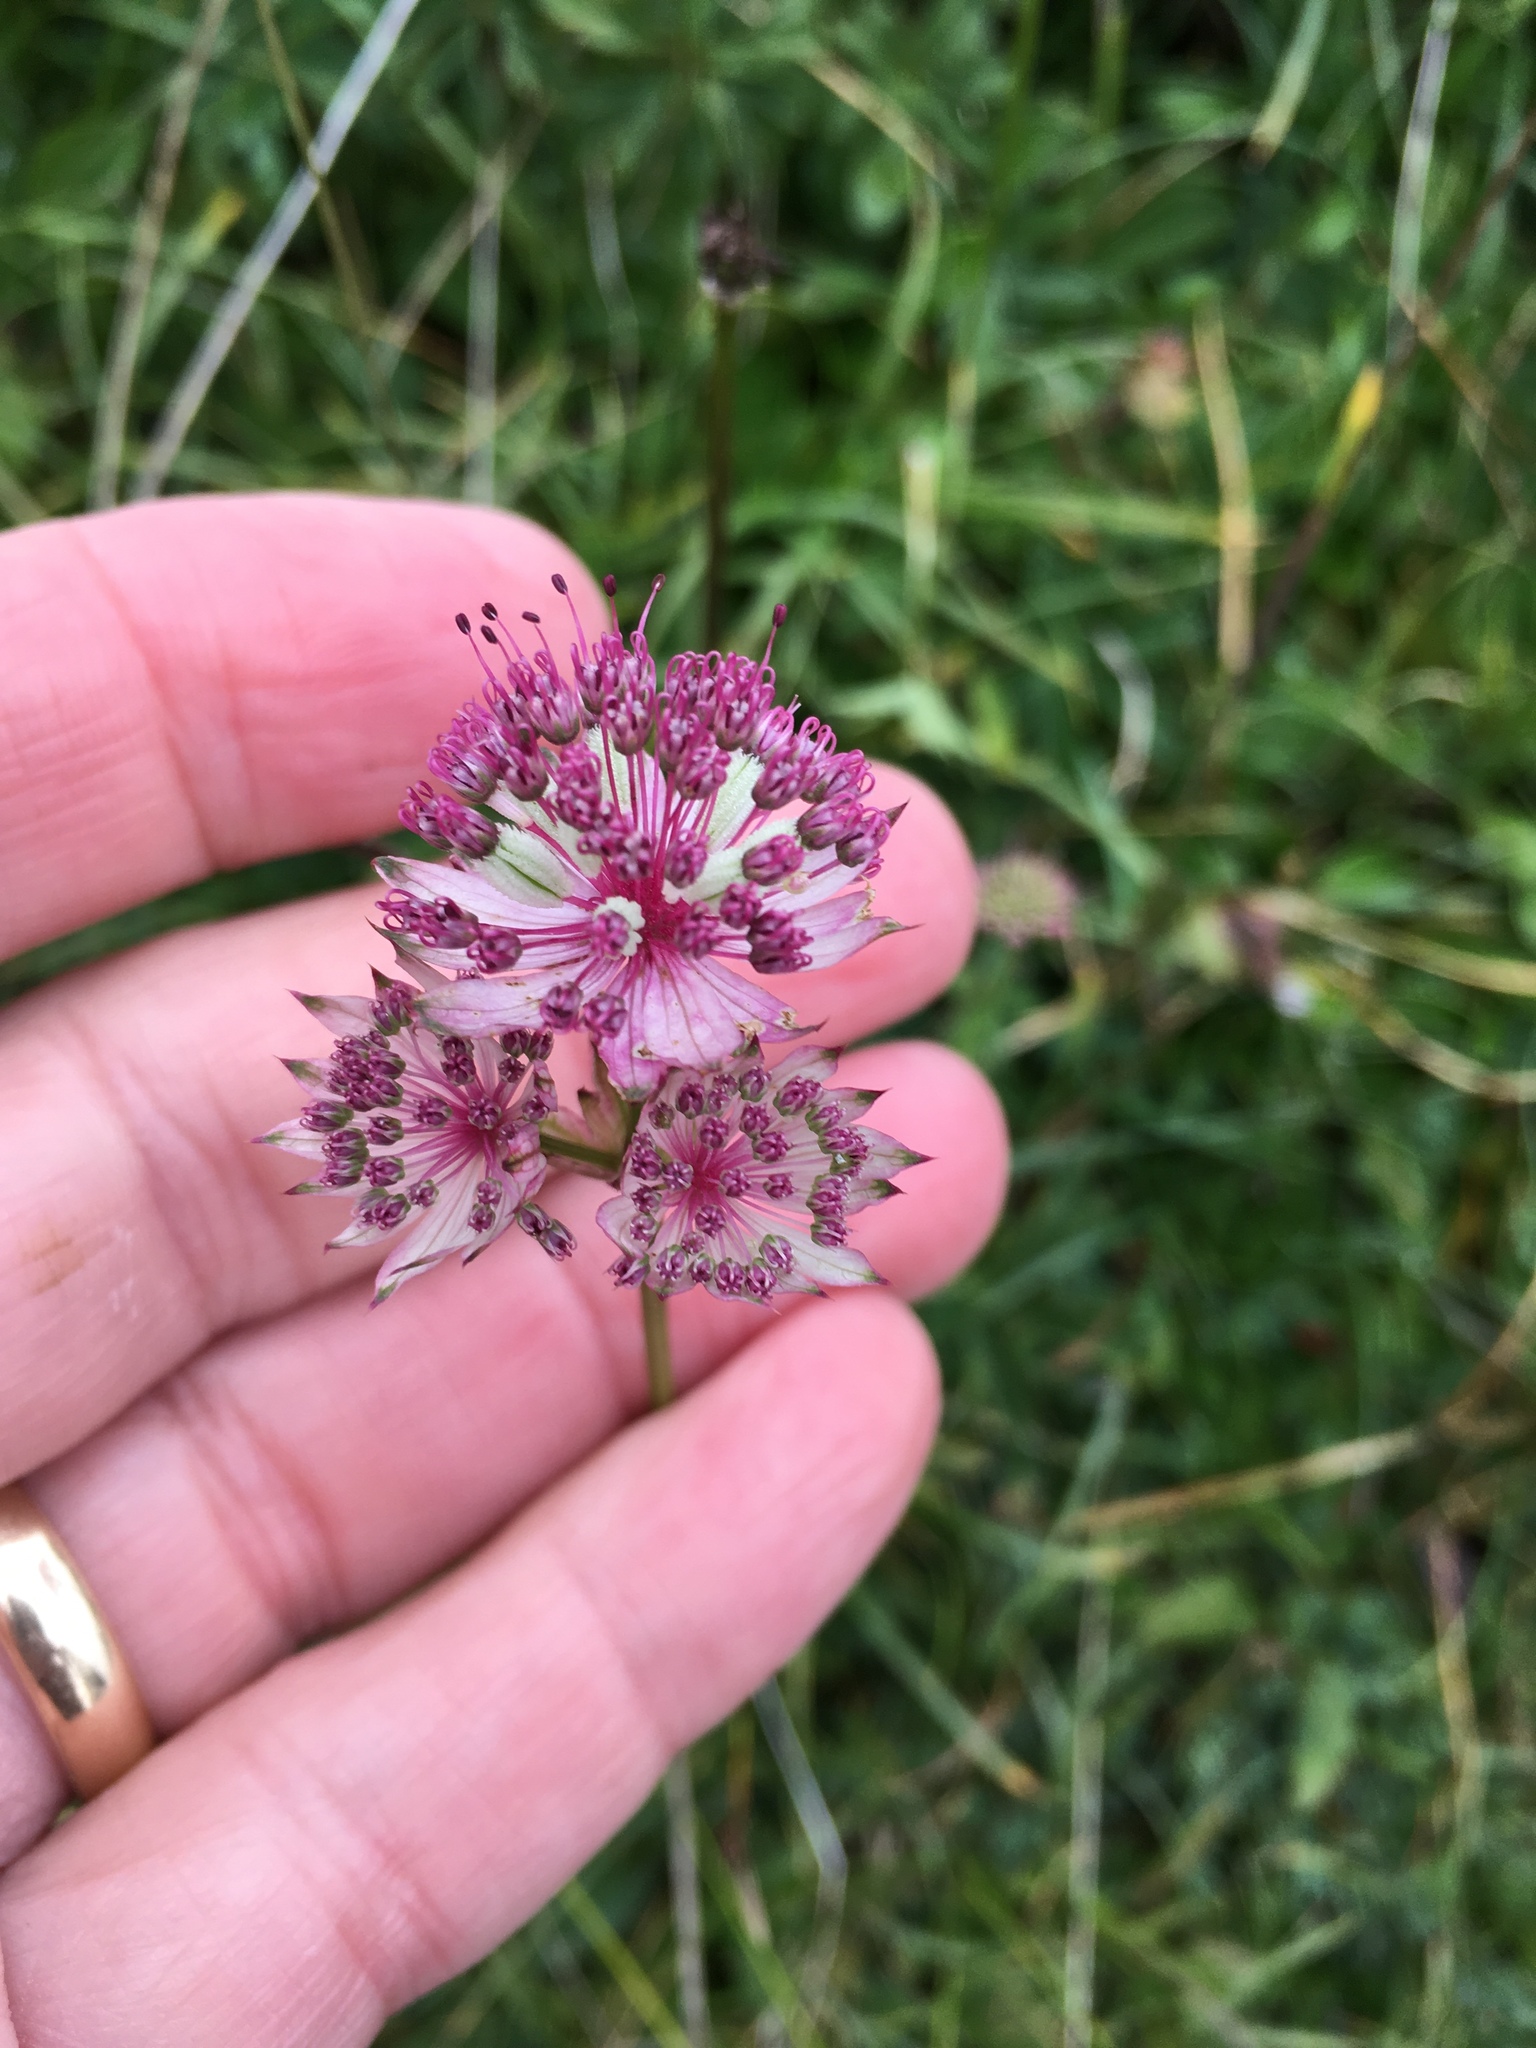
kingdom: Plantae
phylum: Tracheophyta
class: Magnoliopsida
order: Apiales
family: Apiaceae
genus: Astrantia
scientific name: Astrantia major
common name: Greater masterwort
